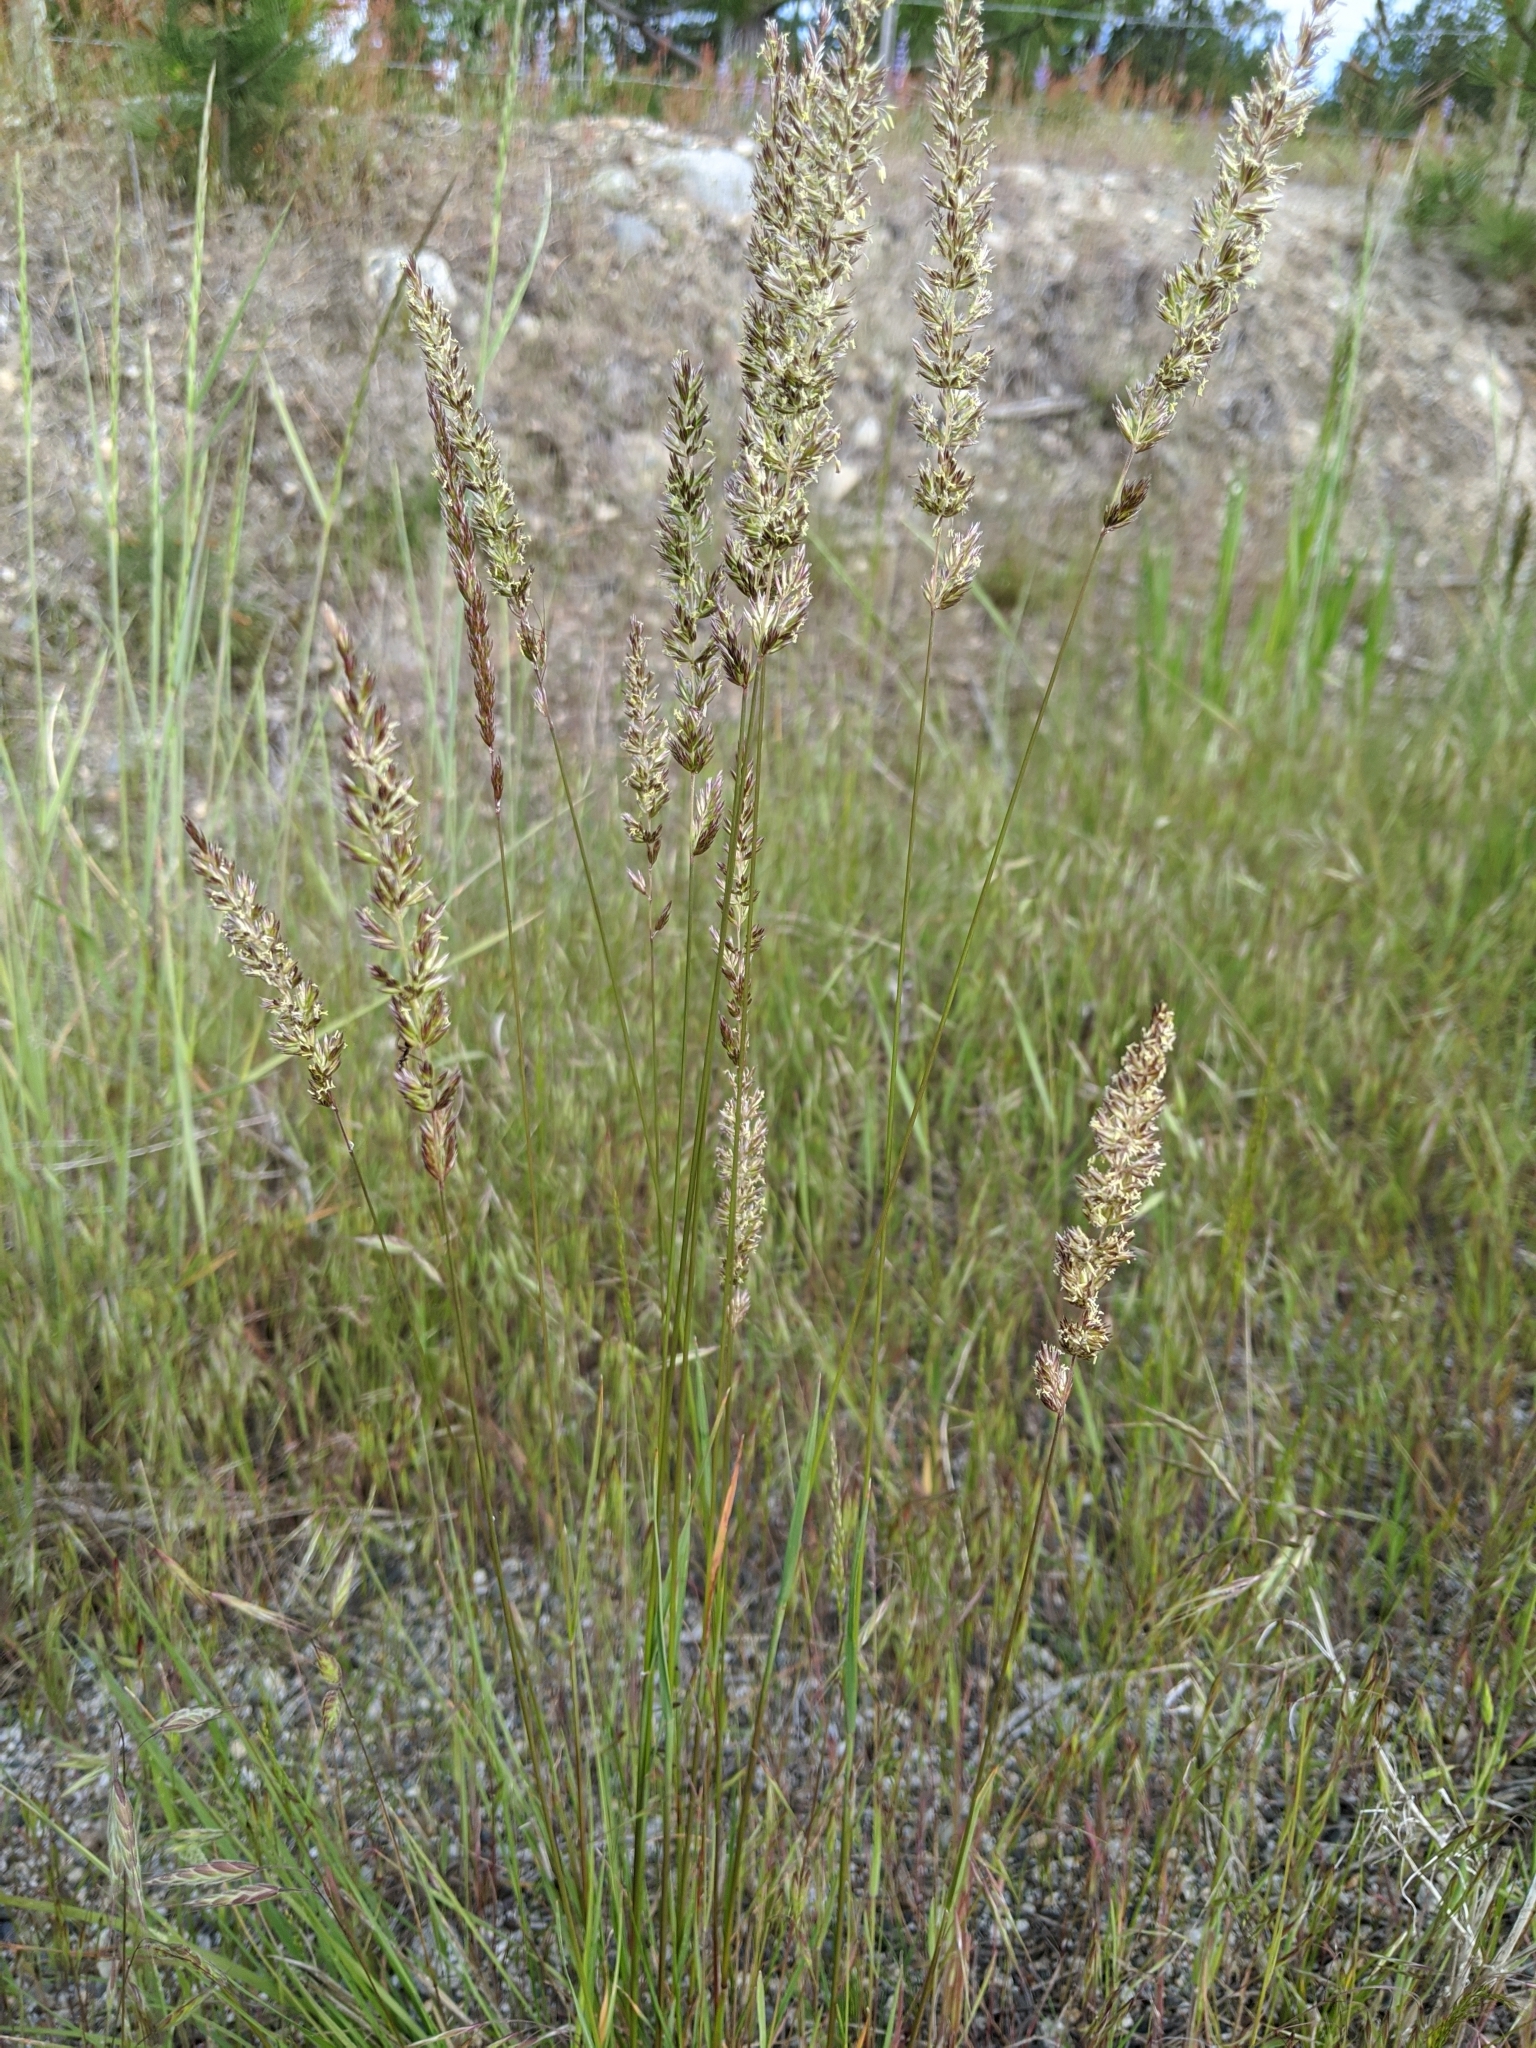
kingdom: Plantae
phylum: Tracheophyta
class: Liliopsida
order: Poales
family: Poaceae
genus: Koeleria
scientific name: Koeleria macrantha
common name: Crested hair-grass
